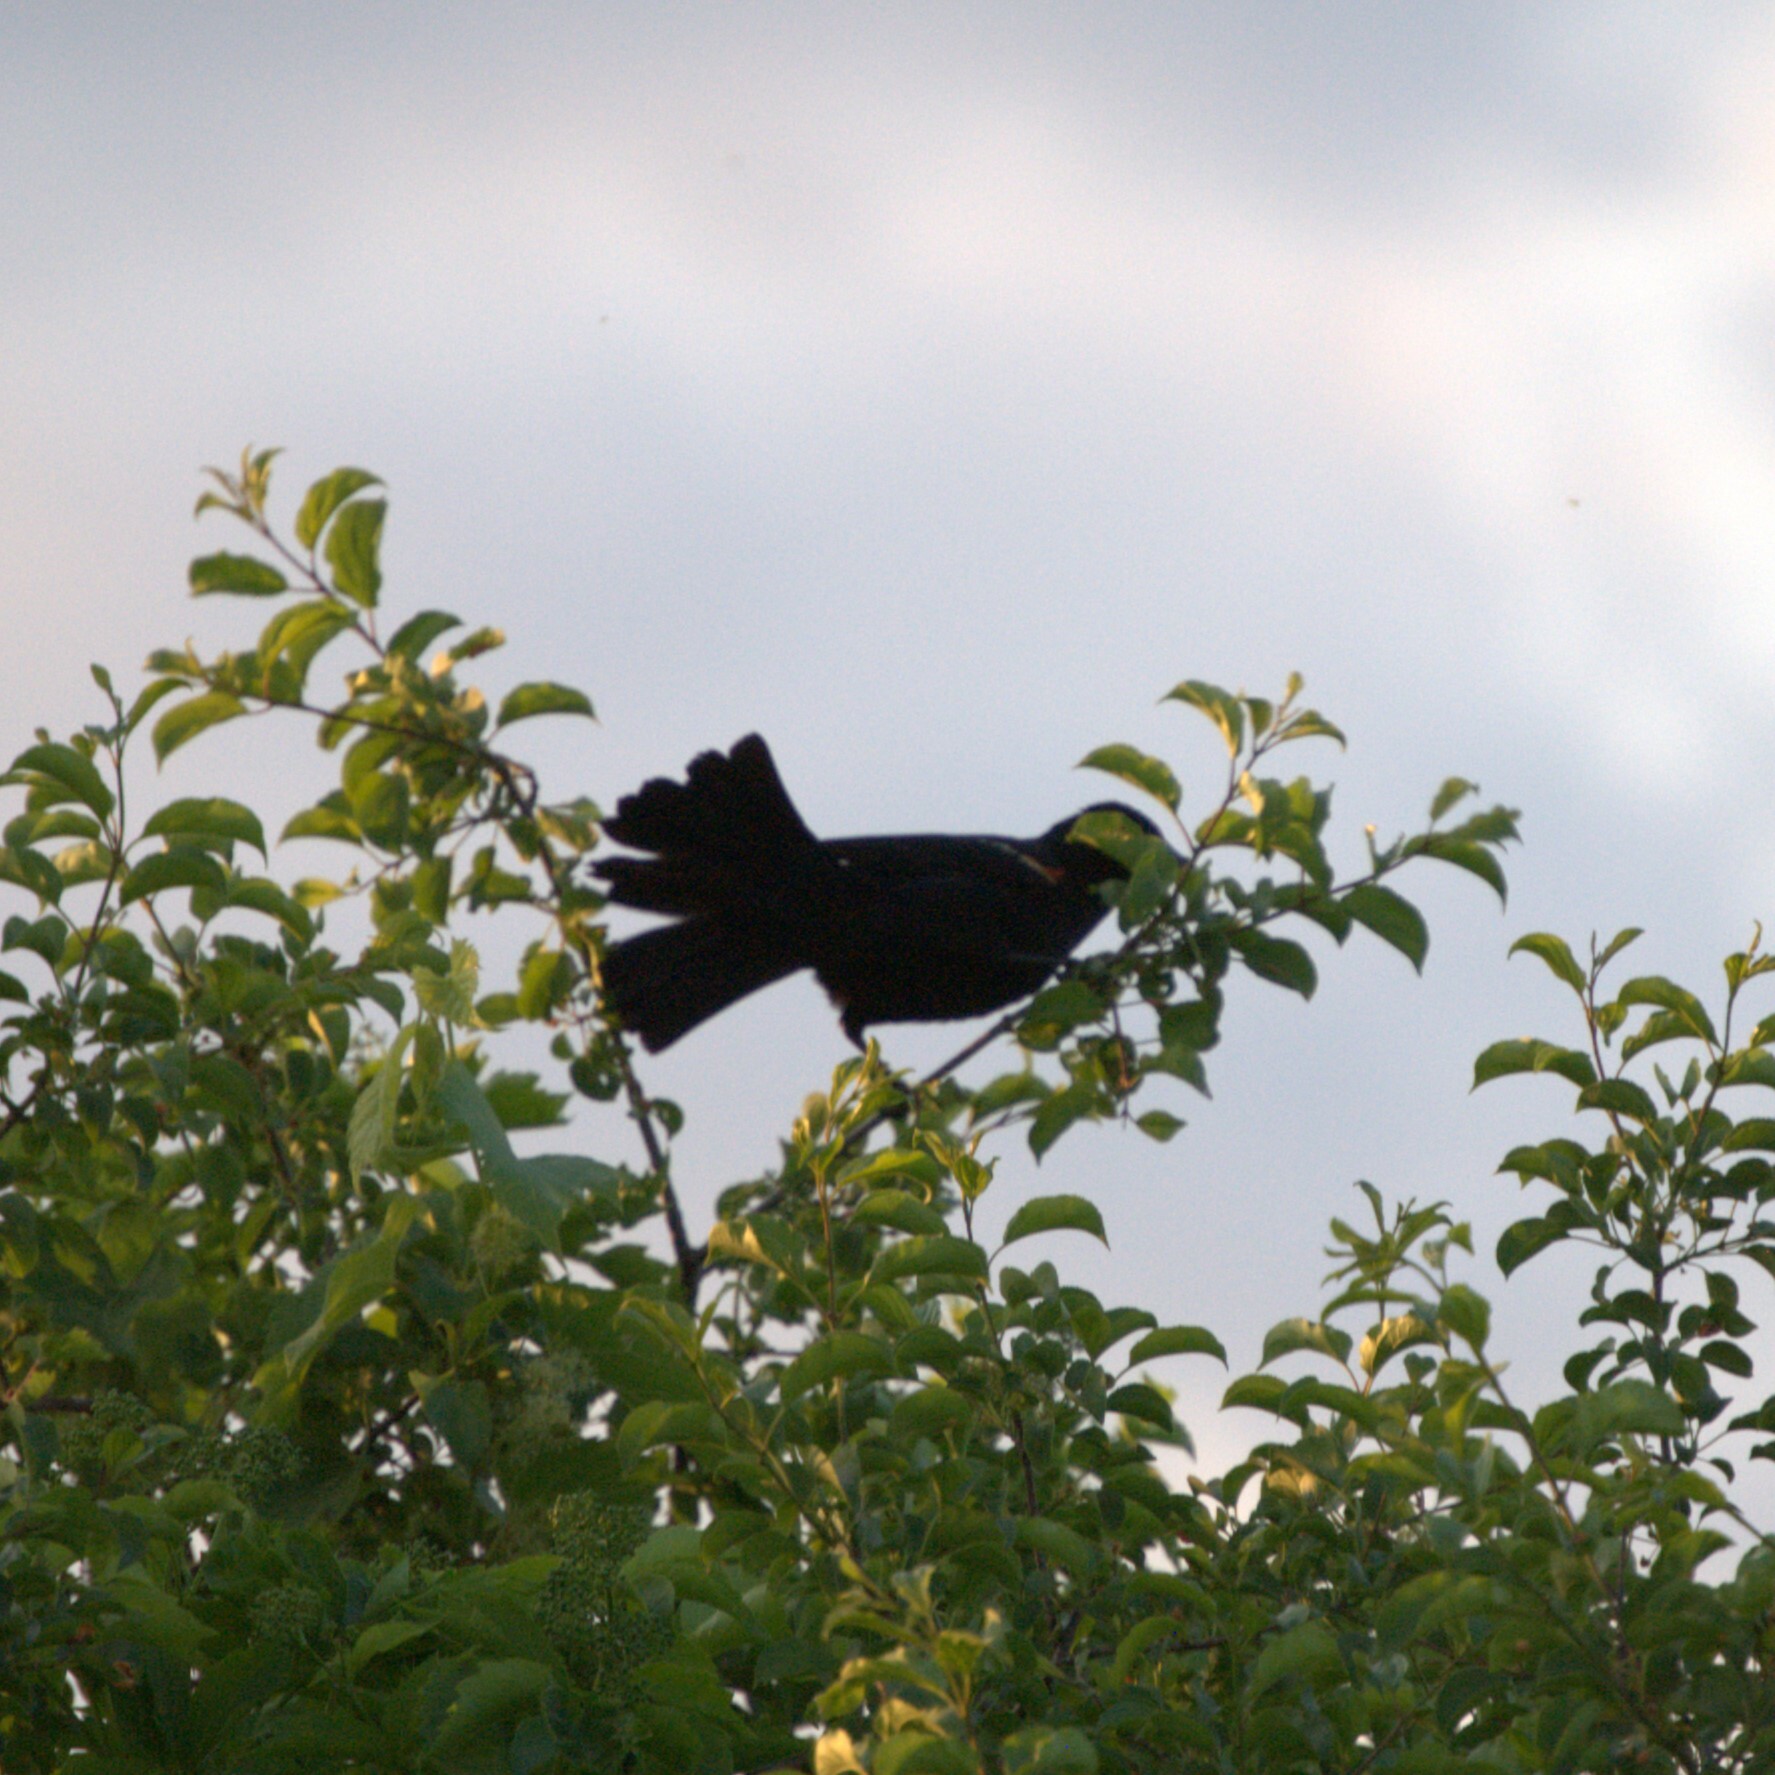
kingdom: Animalia
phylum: Chordata
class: Aves
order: Passeriformes
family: Icteridae
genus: Agelaius
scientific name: Agelaius phoeniceus
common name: Red-winged blackbird
